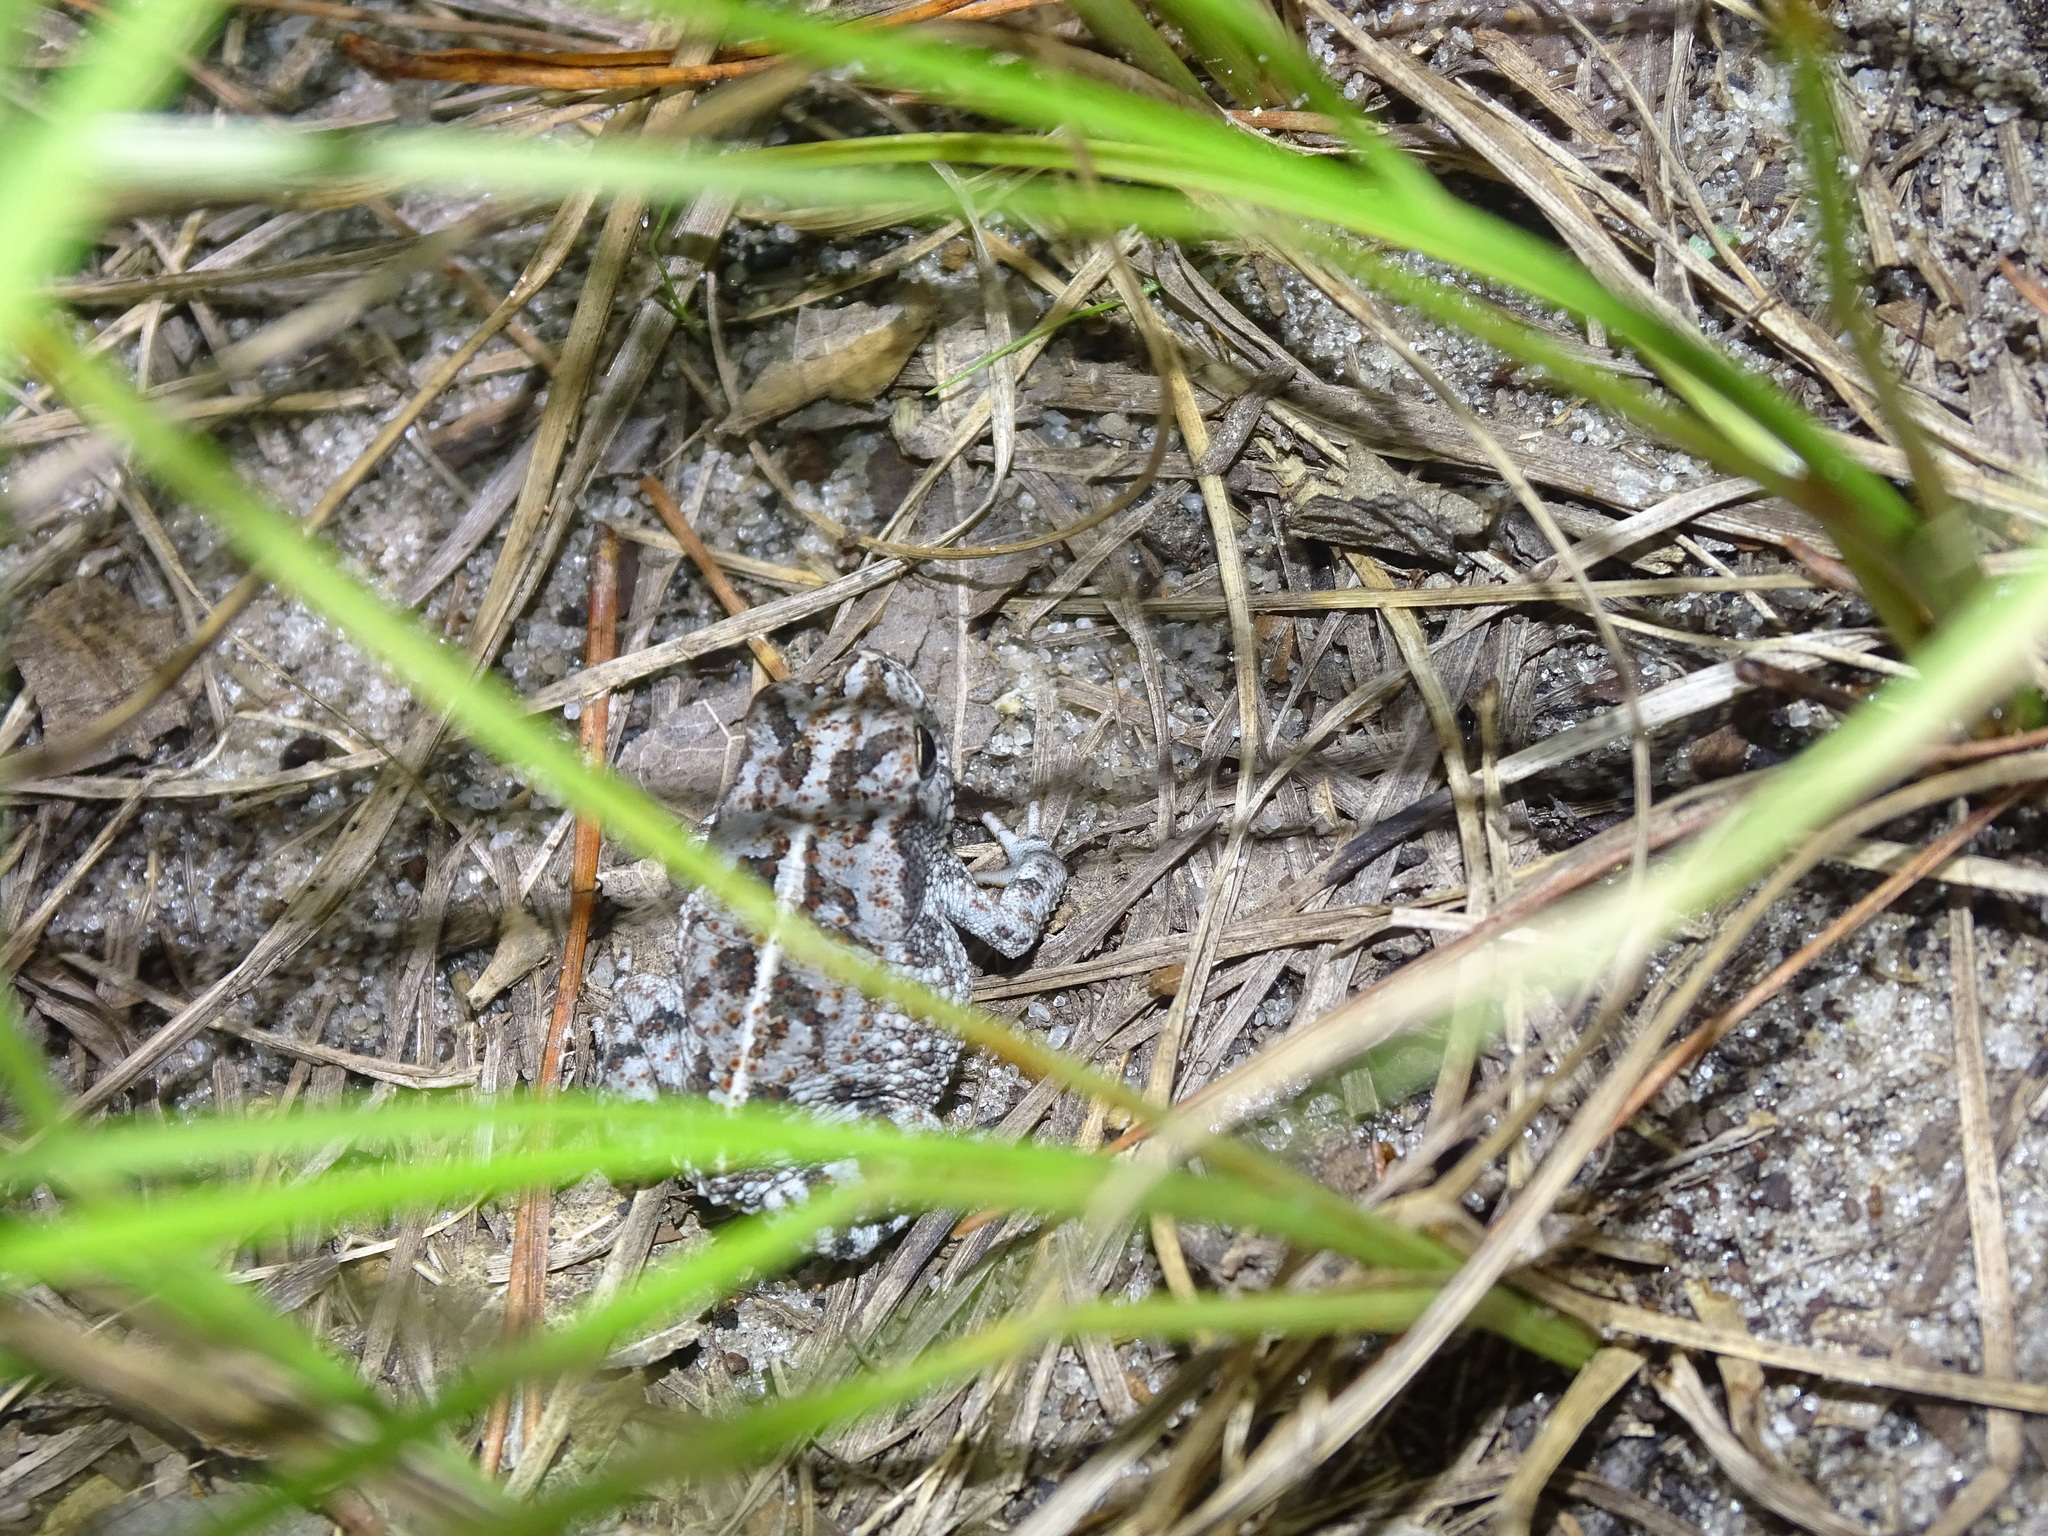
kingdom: Animalia
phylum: Chordata
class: Amphibia
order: Anura
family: Bufonidae
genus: Anaxyrus
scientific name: Anaxyrus quercicus
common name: Oak toad
